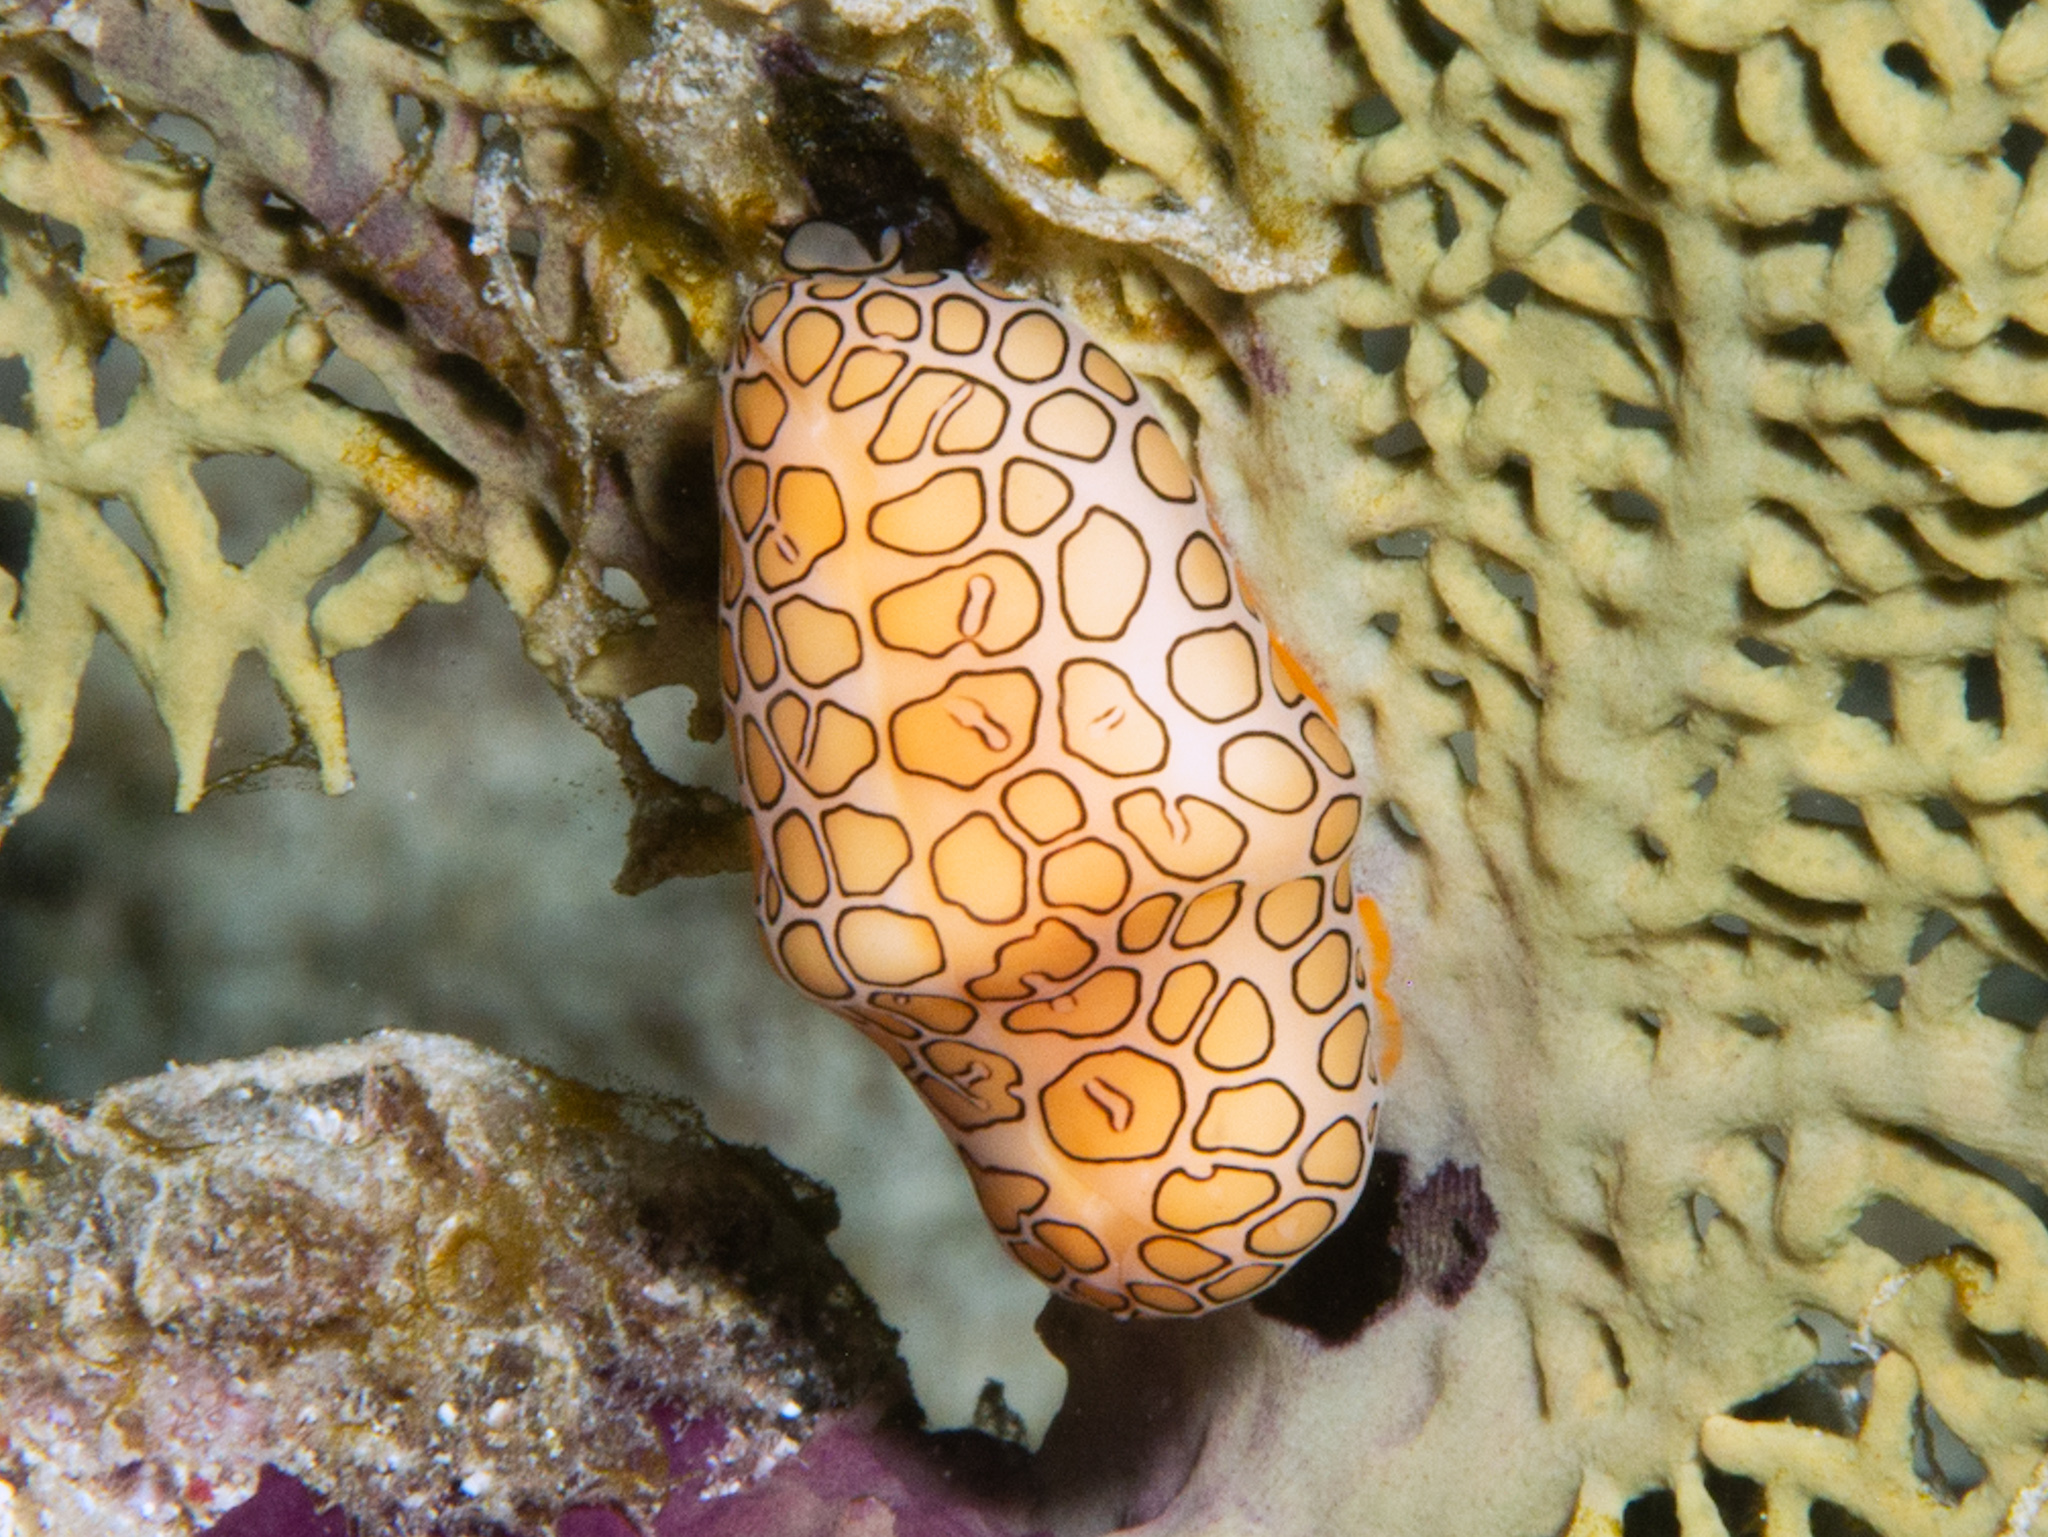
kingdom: Animalia
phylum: Mollusca
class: Gastropoda
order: Littorinimorpha
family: Ovulidae
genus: Cyphoma
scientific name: Cyphoma gibbosum
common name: Flamingo tongue
